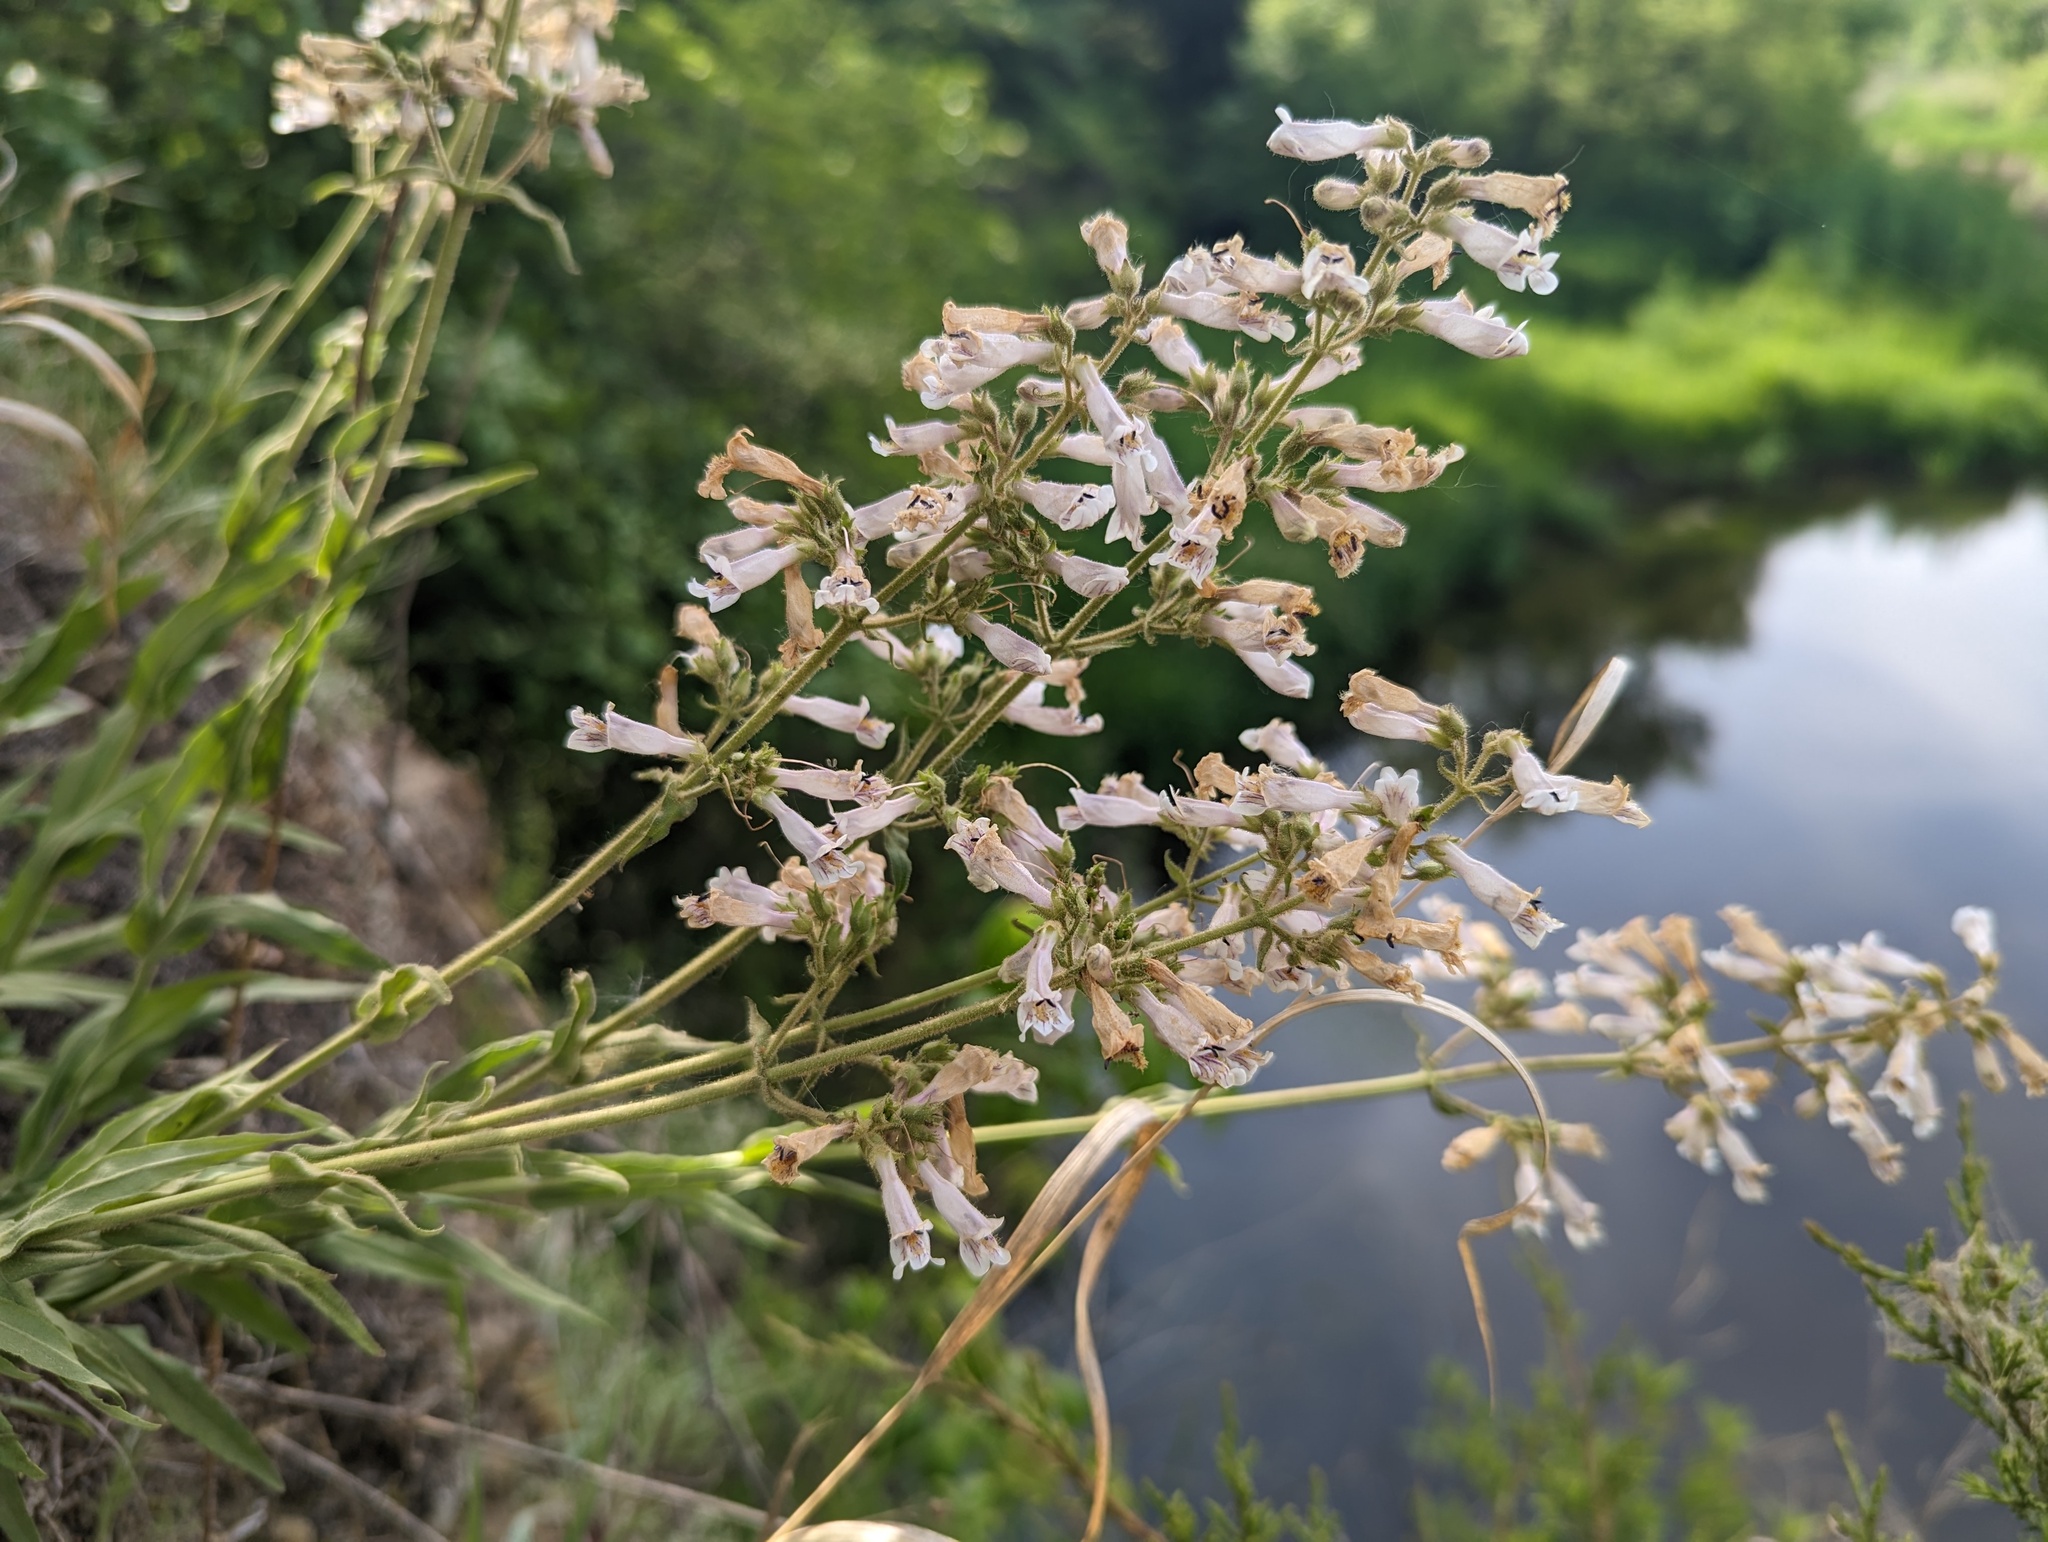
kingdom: Plantae
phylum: Tracheophyta
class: Magnoliopsida
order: Lamiales
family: Plantaginaceae
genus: Penstemon
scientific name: Penstemon pallidus
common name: Pale beardtongue
